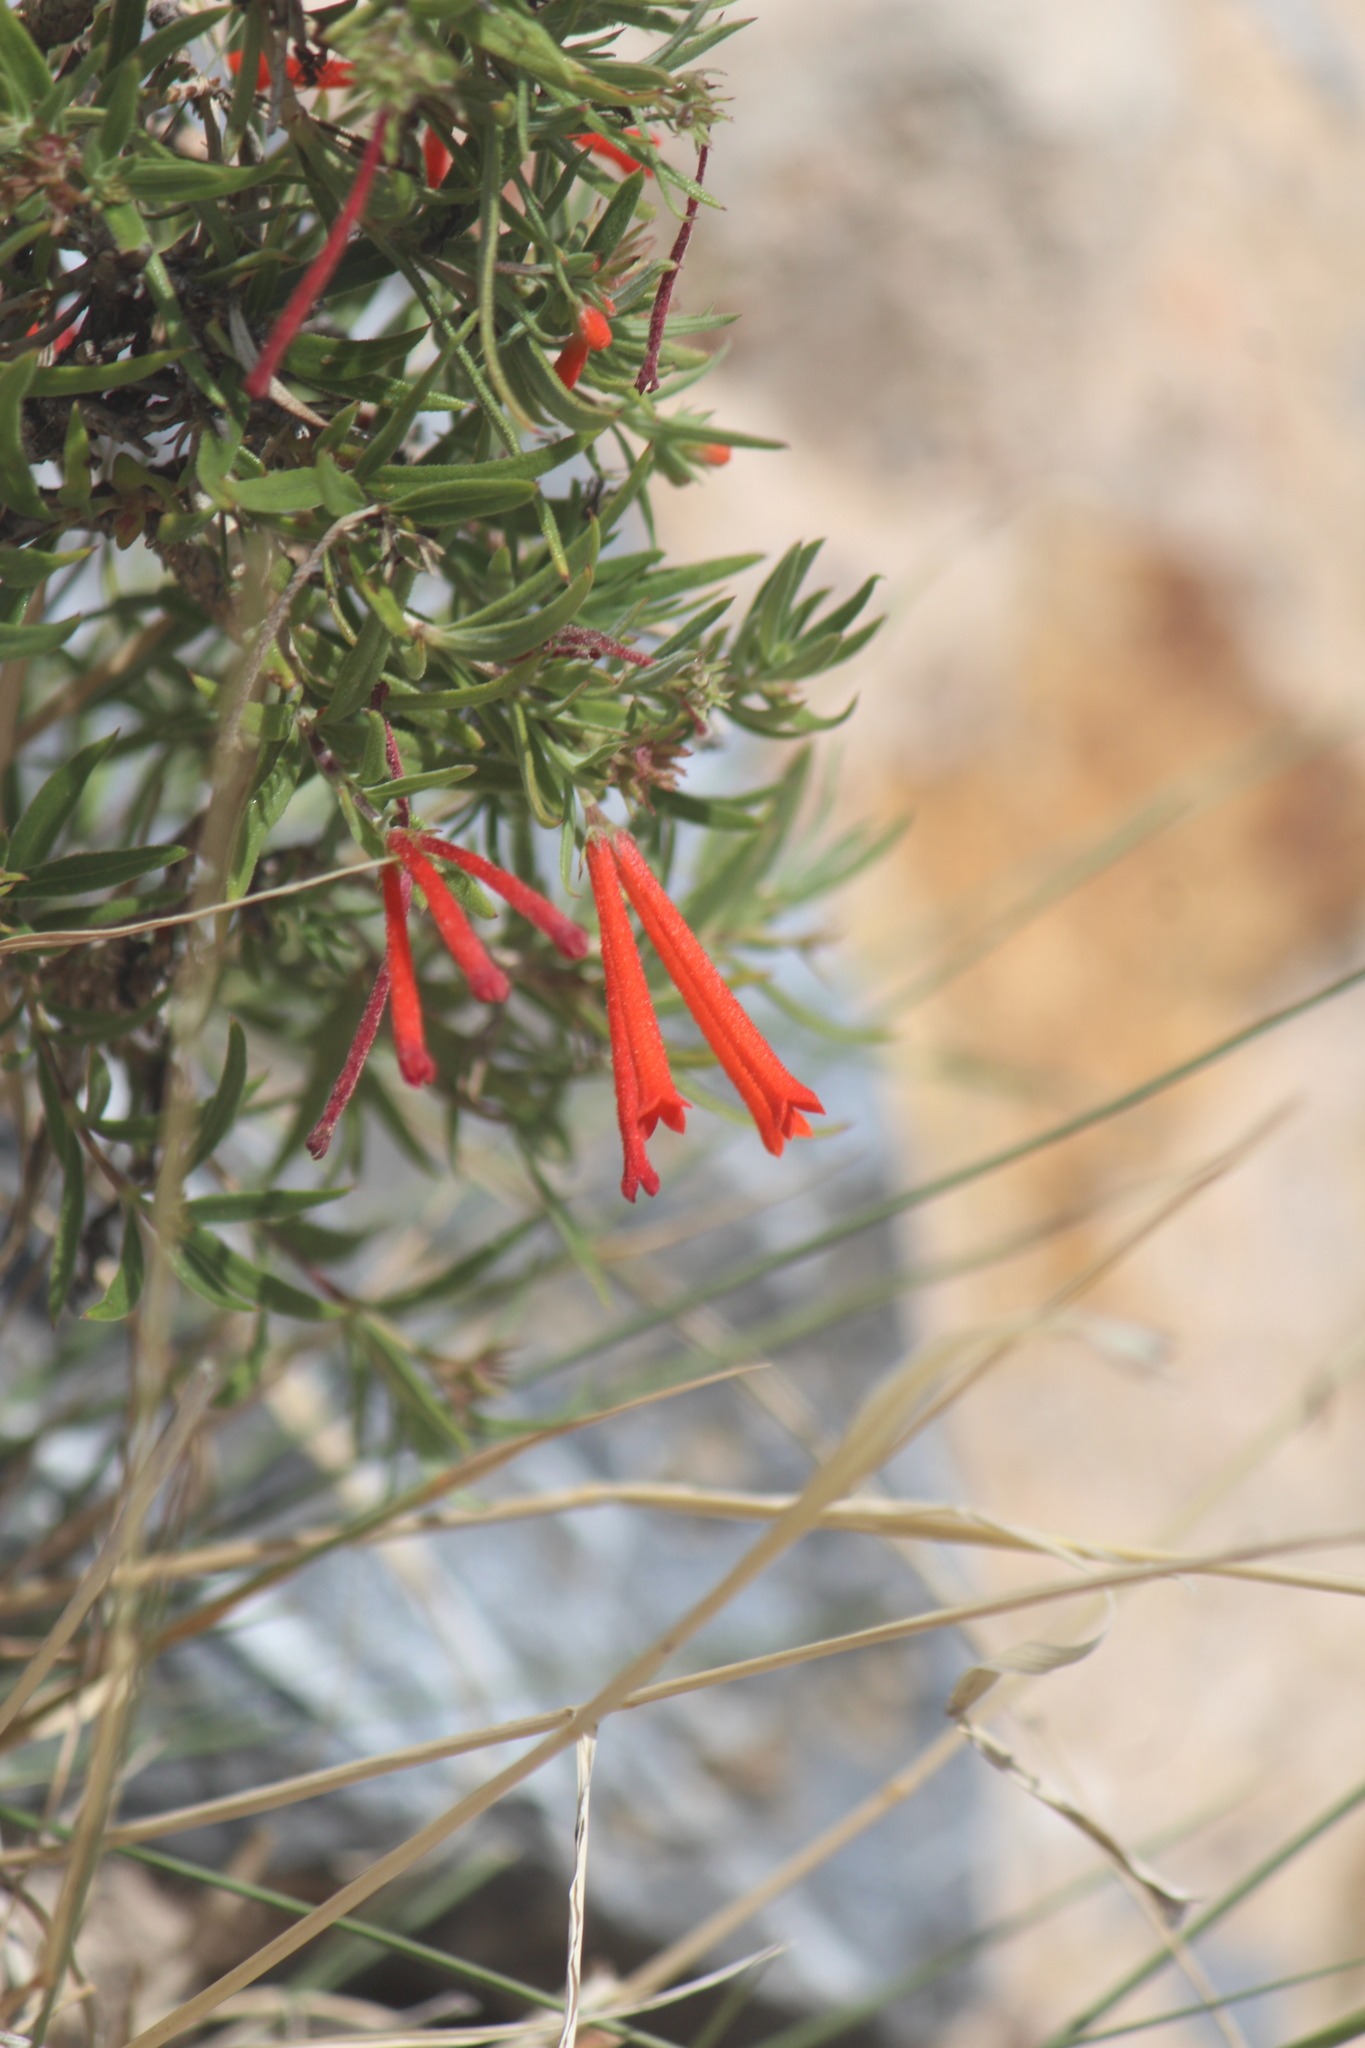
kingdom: Plantae
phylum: Tracheophyta
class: Magnoliopsida
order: Gentianales
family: Rubiaceae
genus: Bouvardia
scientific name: Bouvardia ternifolia
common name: Scarlet bouvardia
